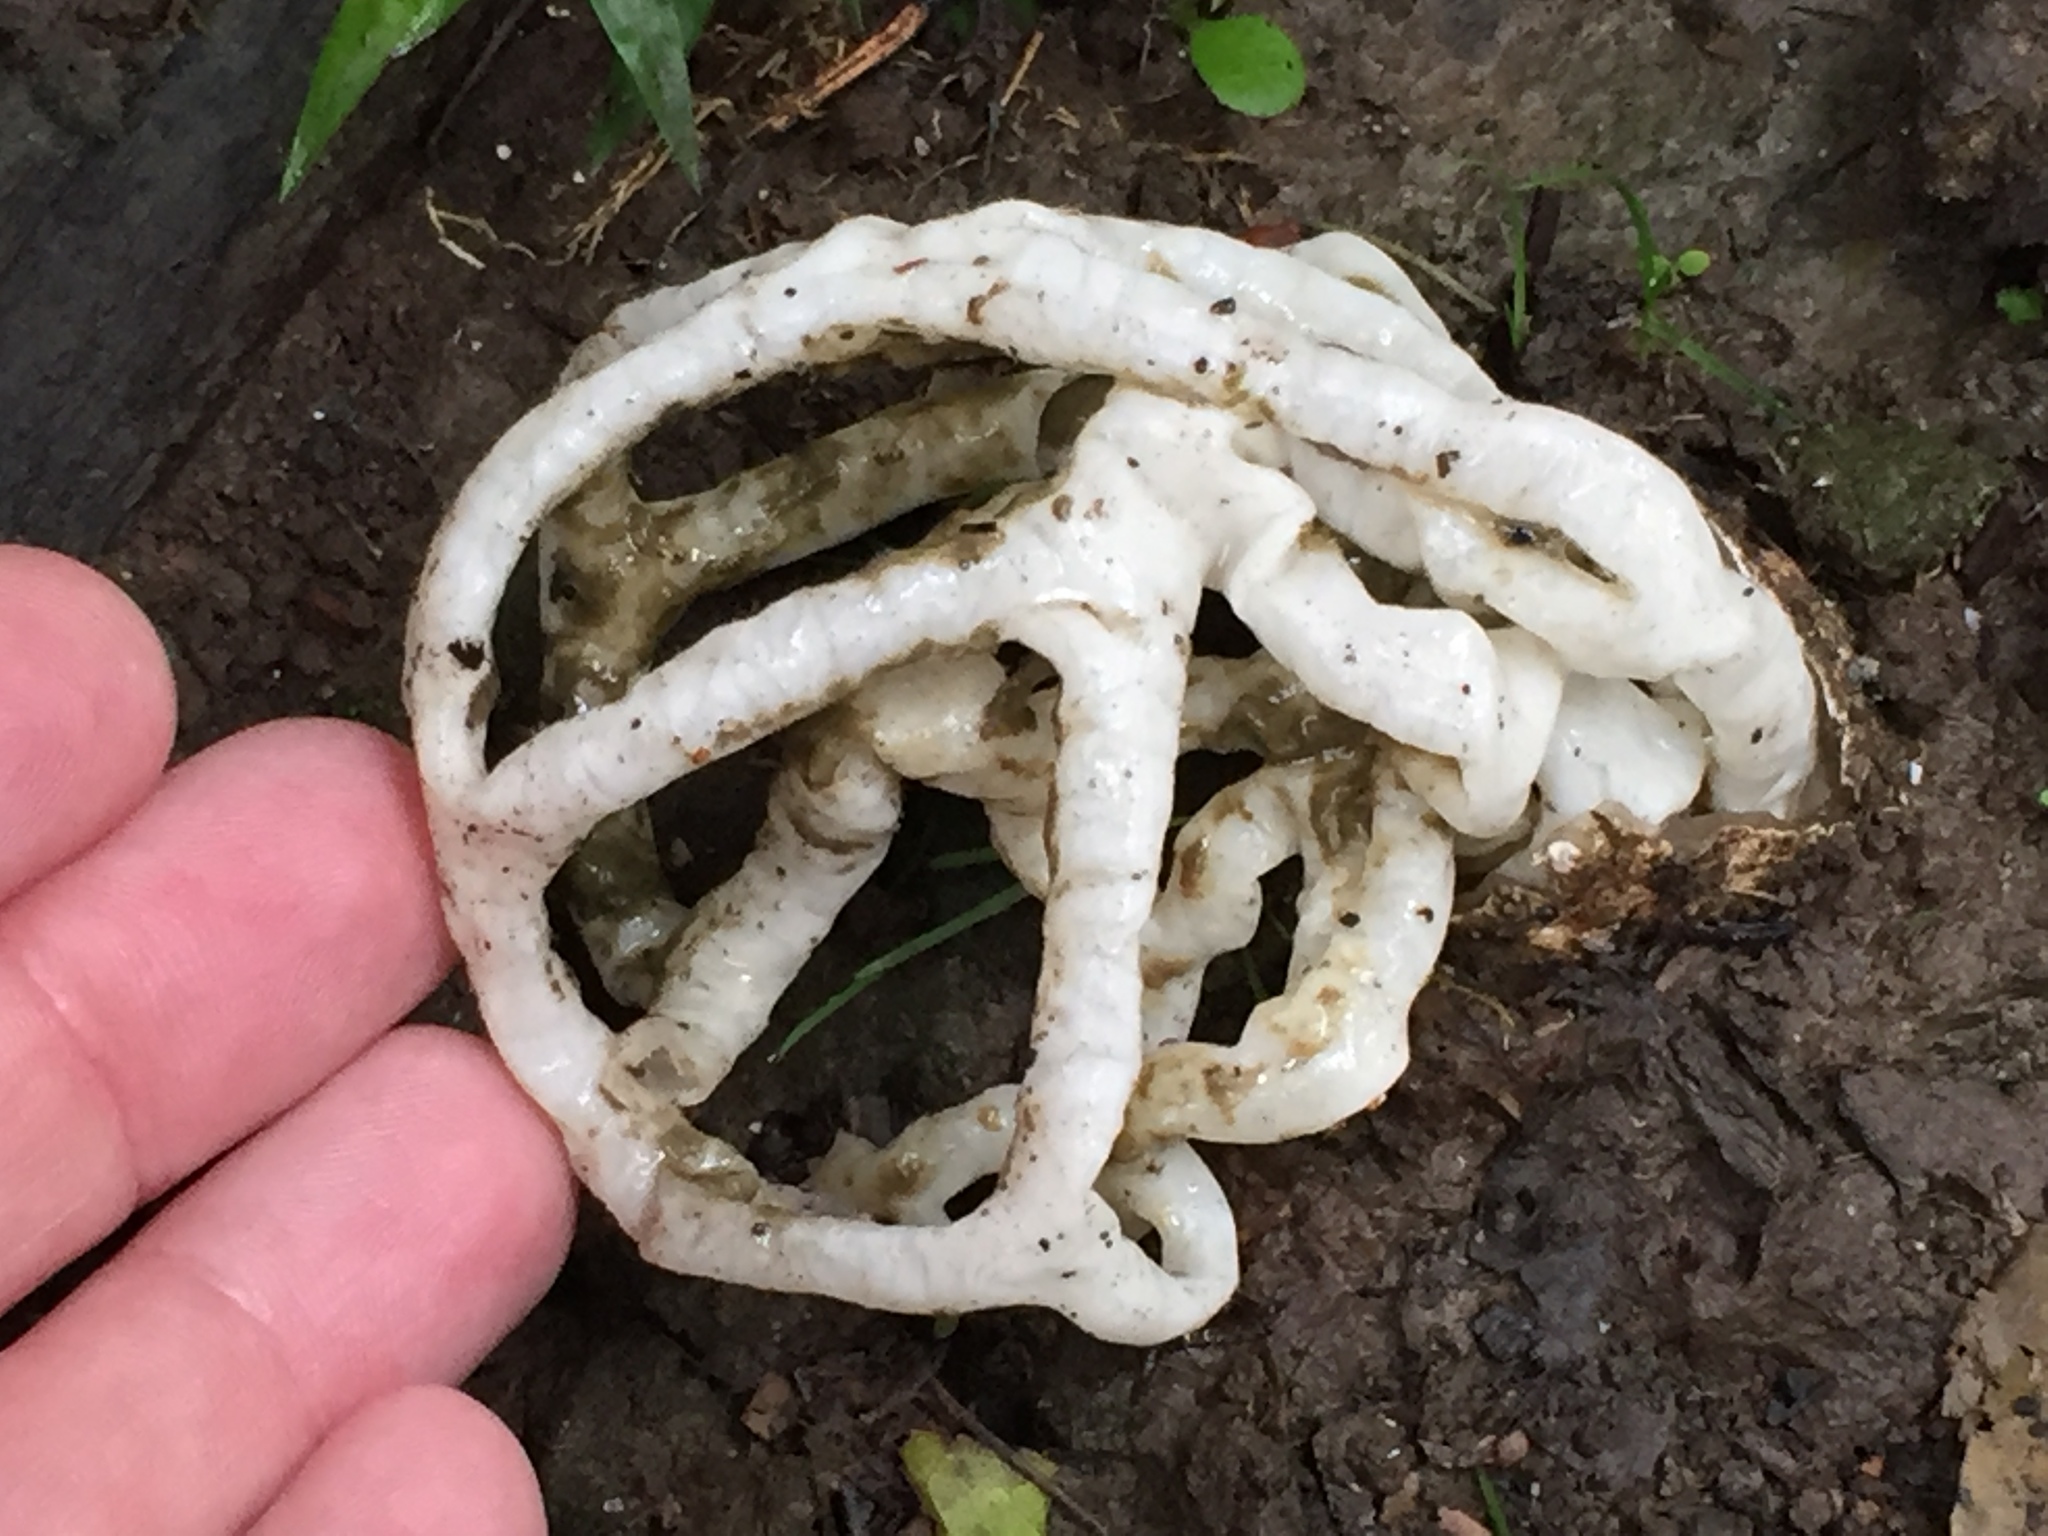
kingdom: Fungi
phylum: Basidiomycota
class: Agaricomycetes
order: Phallales
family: Phallaceae
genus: Ileodictyon
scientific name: Ileodictyon cibarium
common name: Basket fungus
